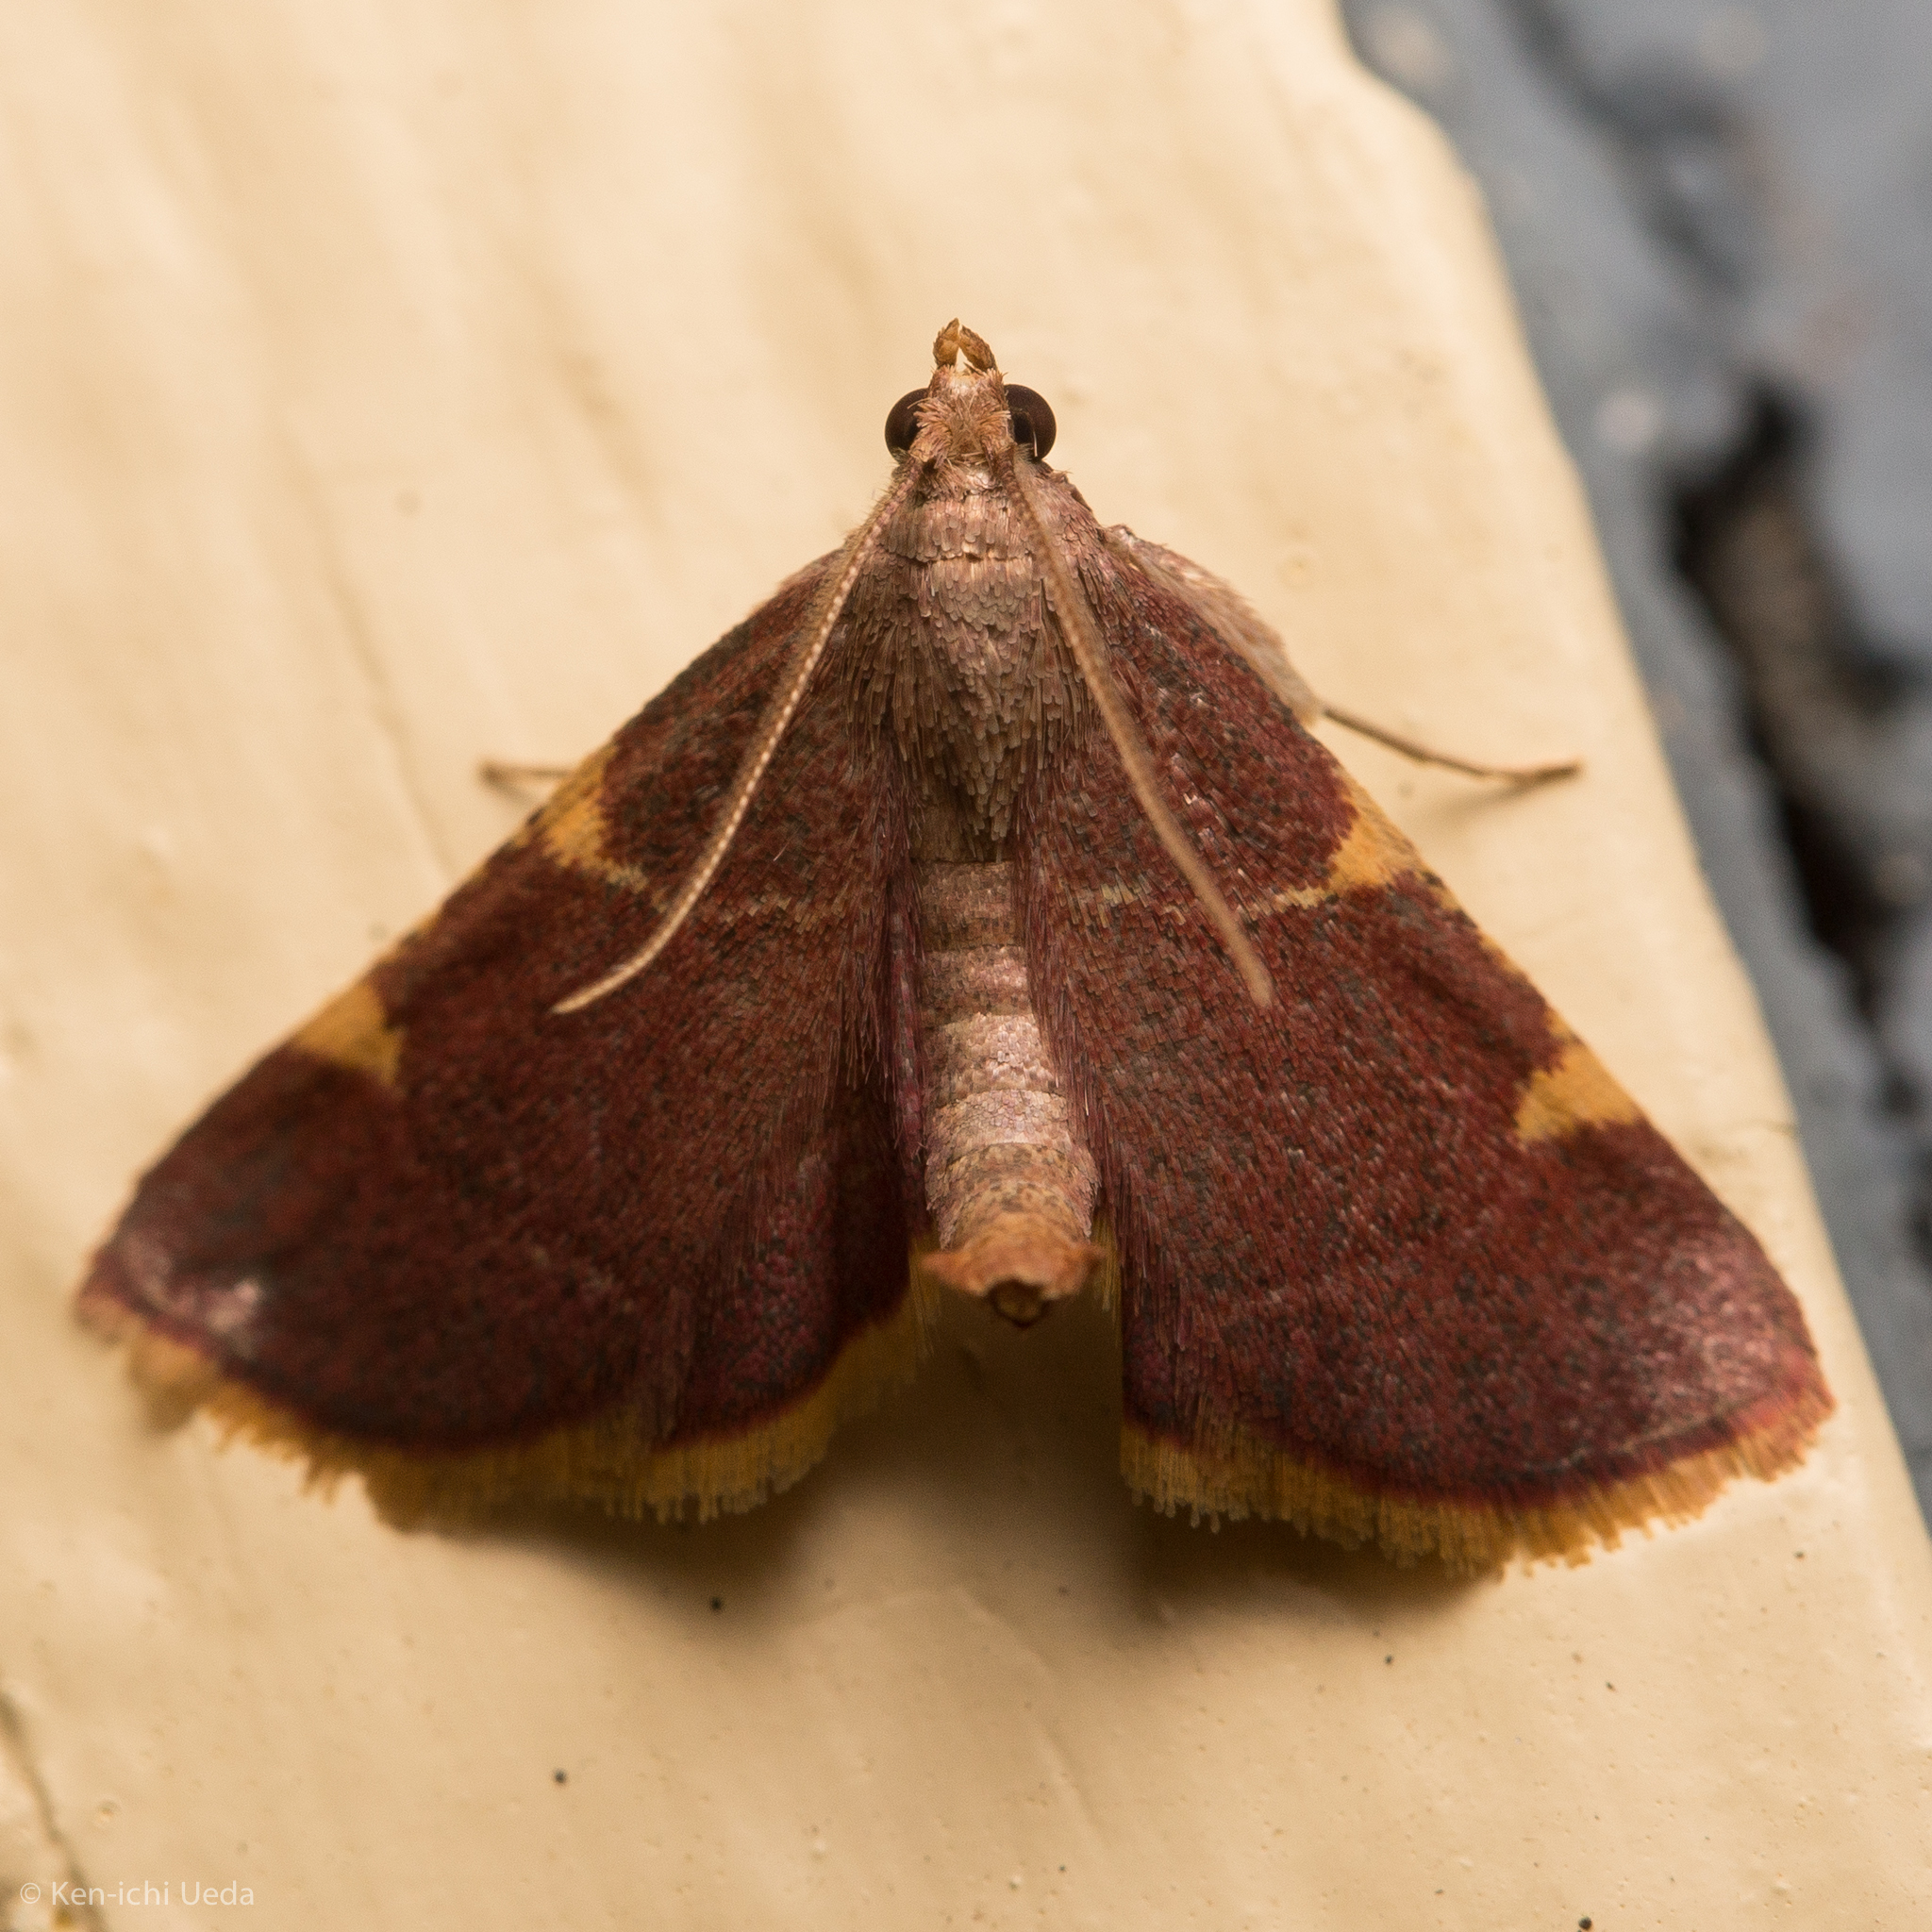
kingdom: Animalia
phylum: Arthropoda
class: Insecta
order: Lepidoptera
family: Pyralidae
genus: Hypsopygia
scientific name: Hypsopygia olinalis
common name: Yellow-fringed dolichomia moth
